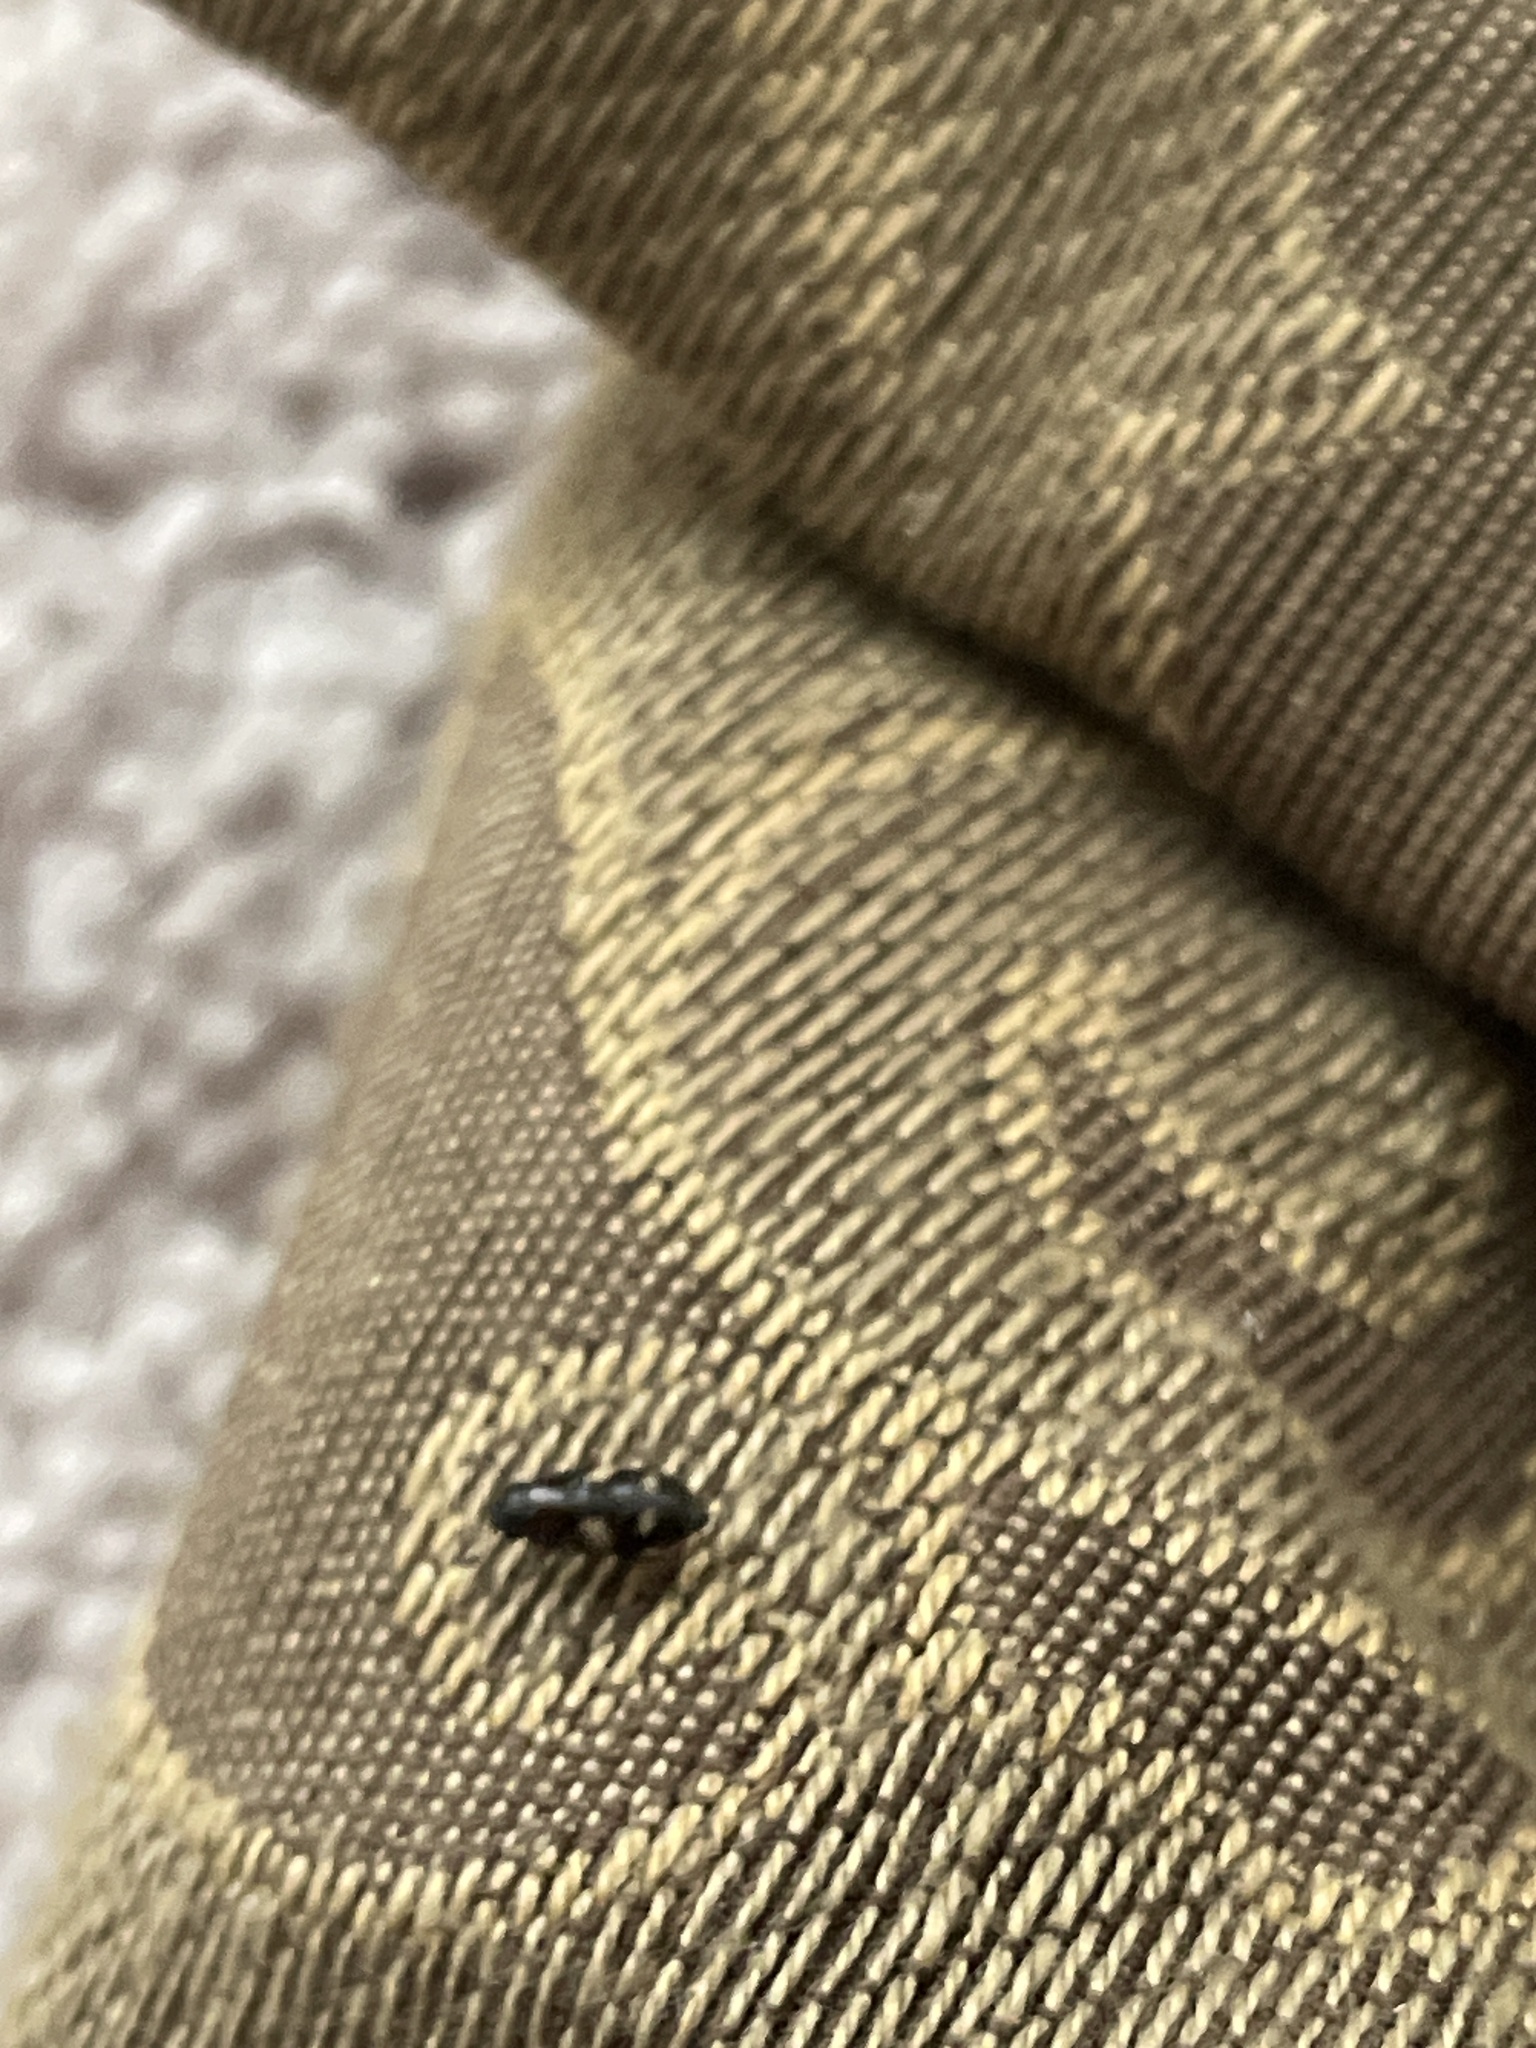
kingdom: Animalia
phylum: Arthropoda
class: Insecta
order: Coleoptera
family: Nitidulidae
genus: Glischrochilus
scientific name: Glischrochilus quadrisignatus
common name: Picnic beetle
